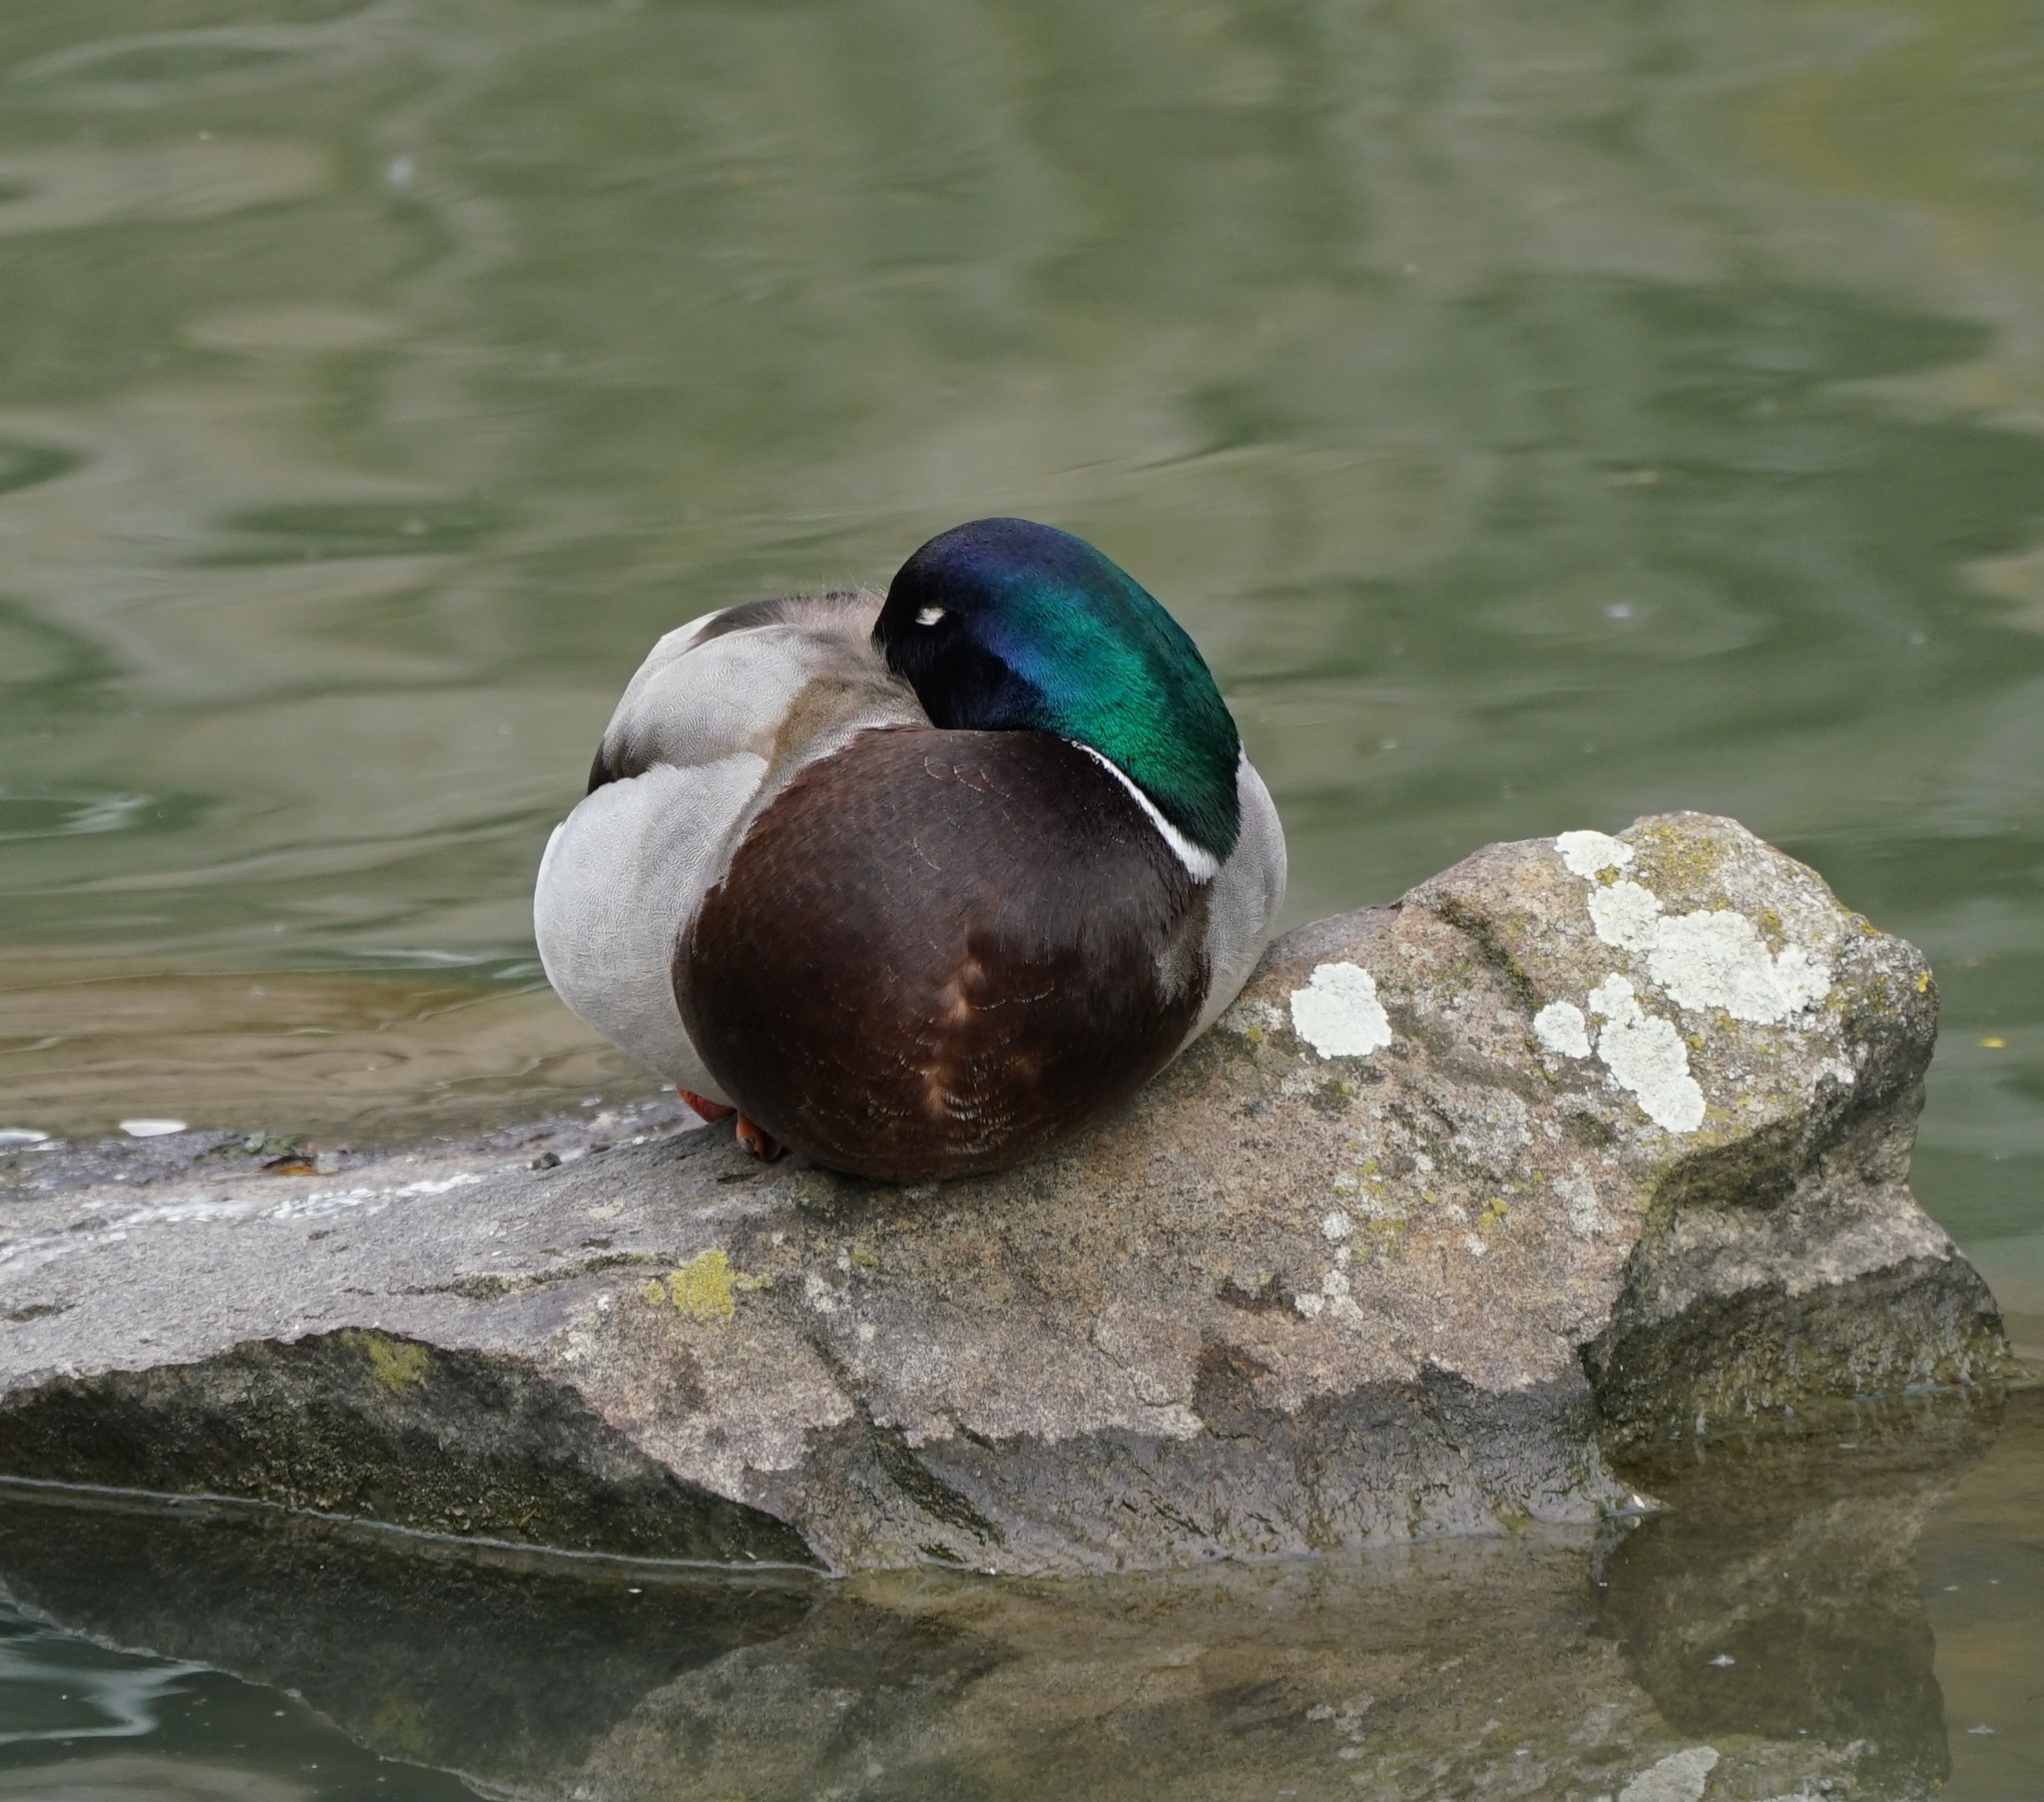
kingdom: Animalia
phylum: Chordata
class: Aves
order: Anseriformes
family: Anatidae
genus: Anas
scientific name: Anas platyrhynchos
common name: Mallard
